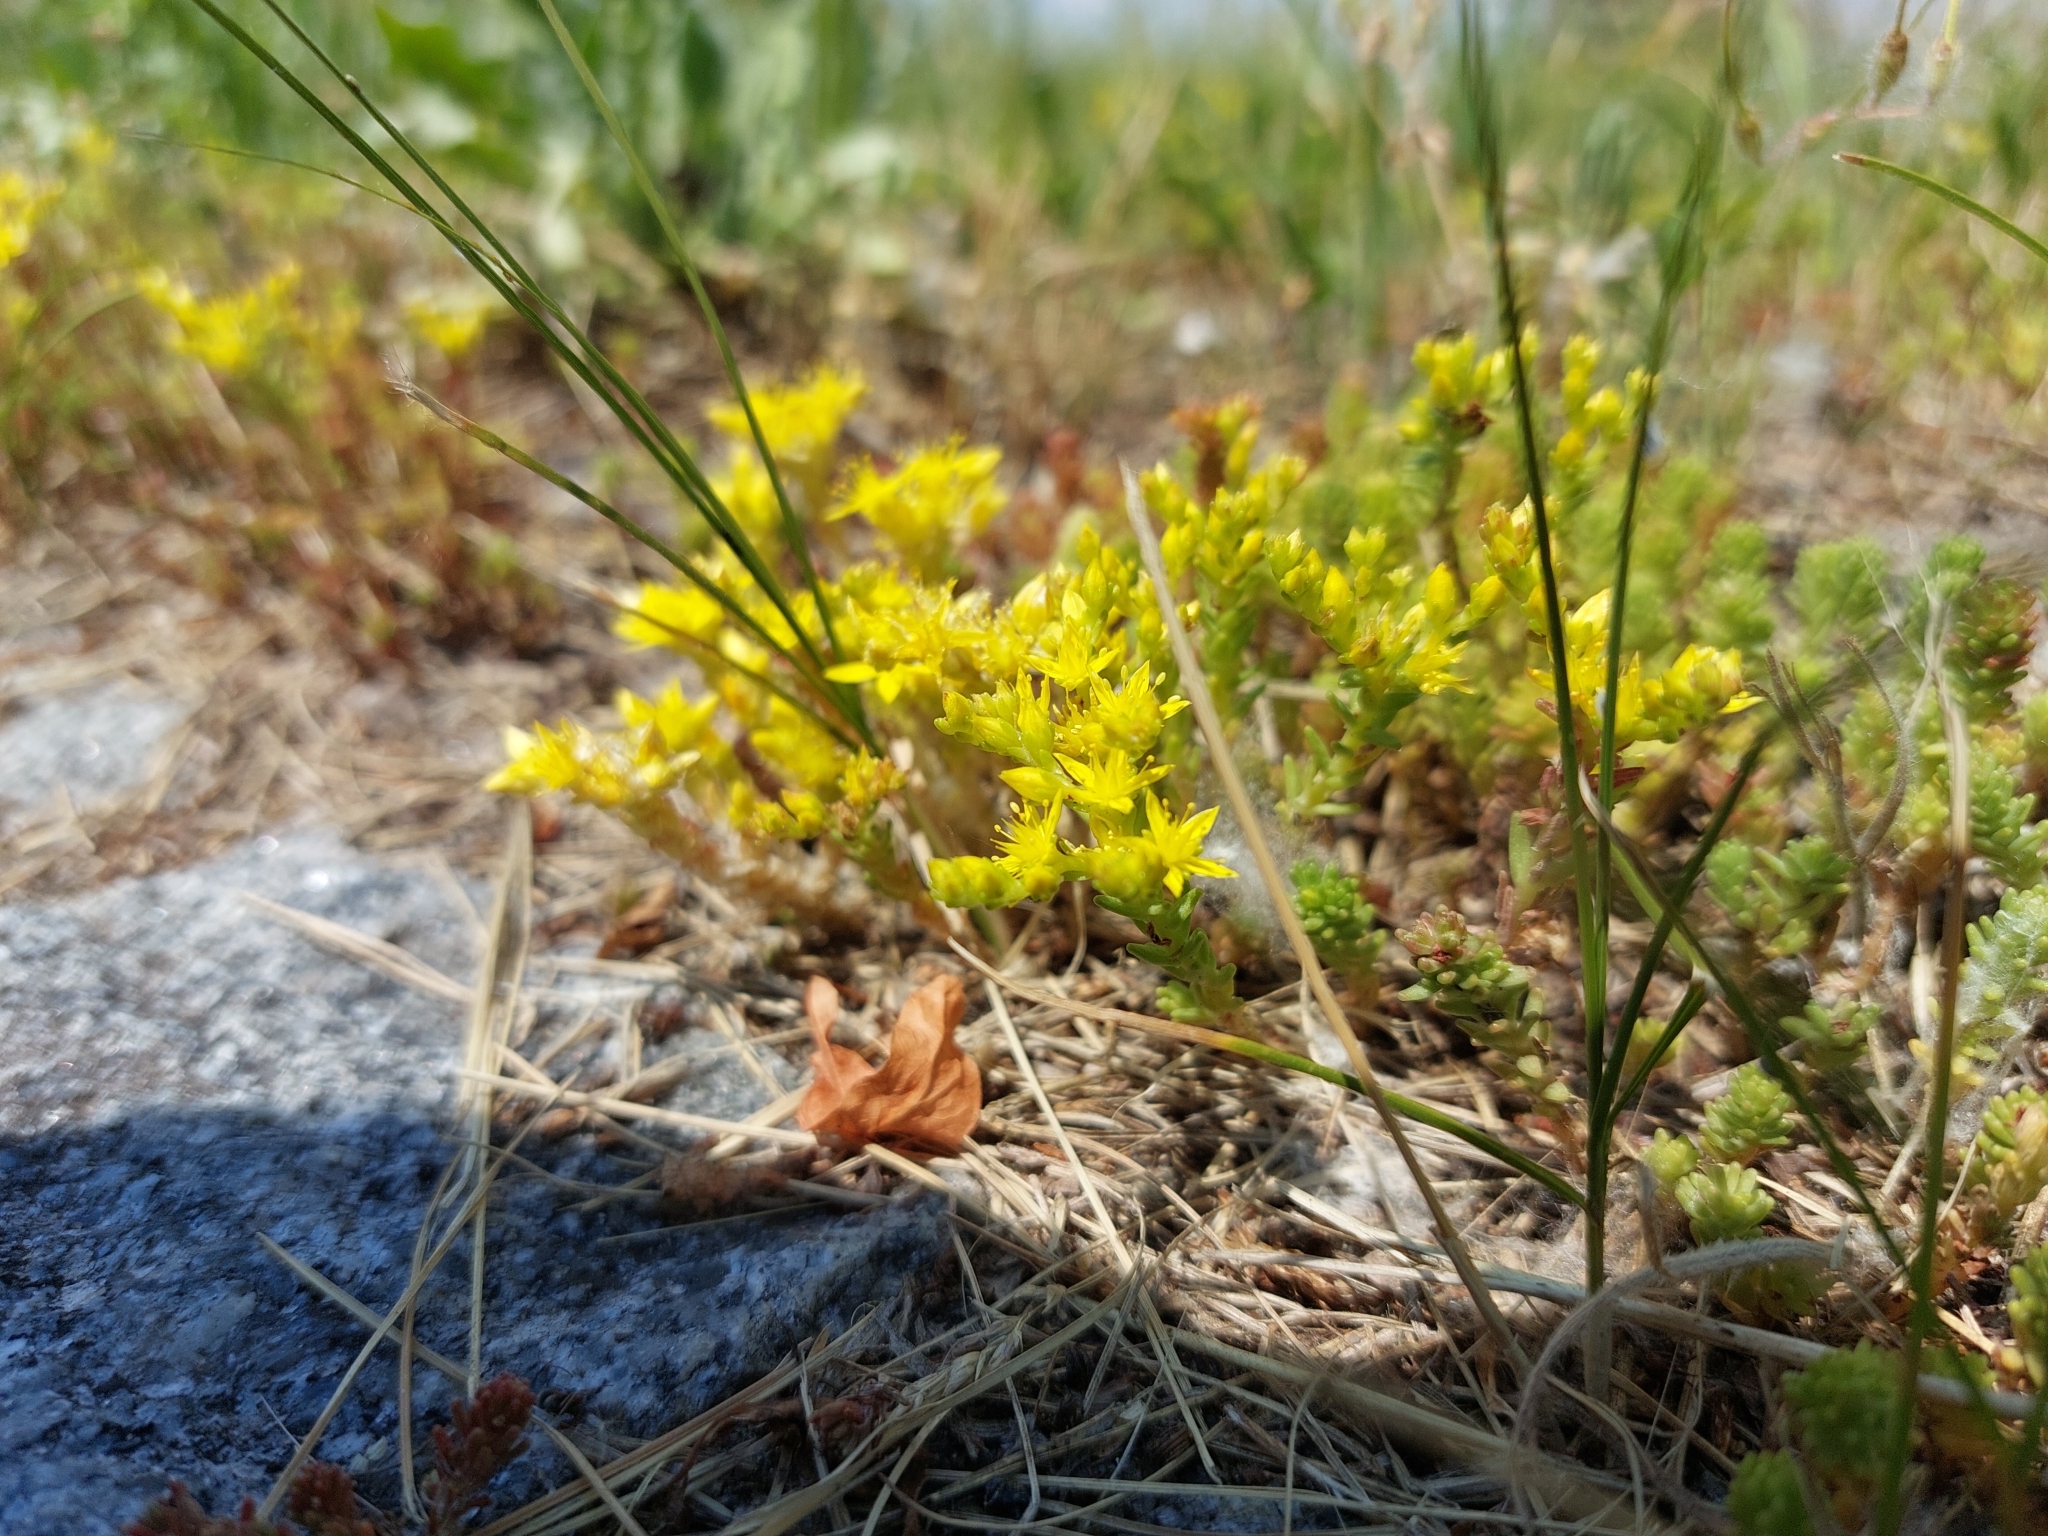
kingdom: Plantae
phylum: Tracheophyta
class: Magnoliopsida
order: Saxifragales
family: Crassulaceae
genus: Sedum
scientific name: Sedum sexangulare
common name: Tasteless stonecrop
